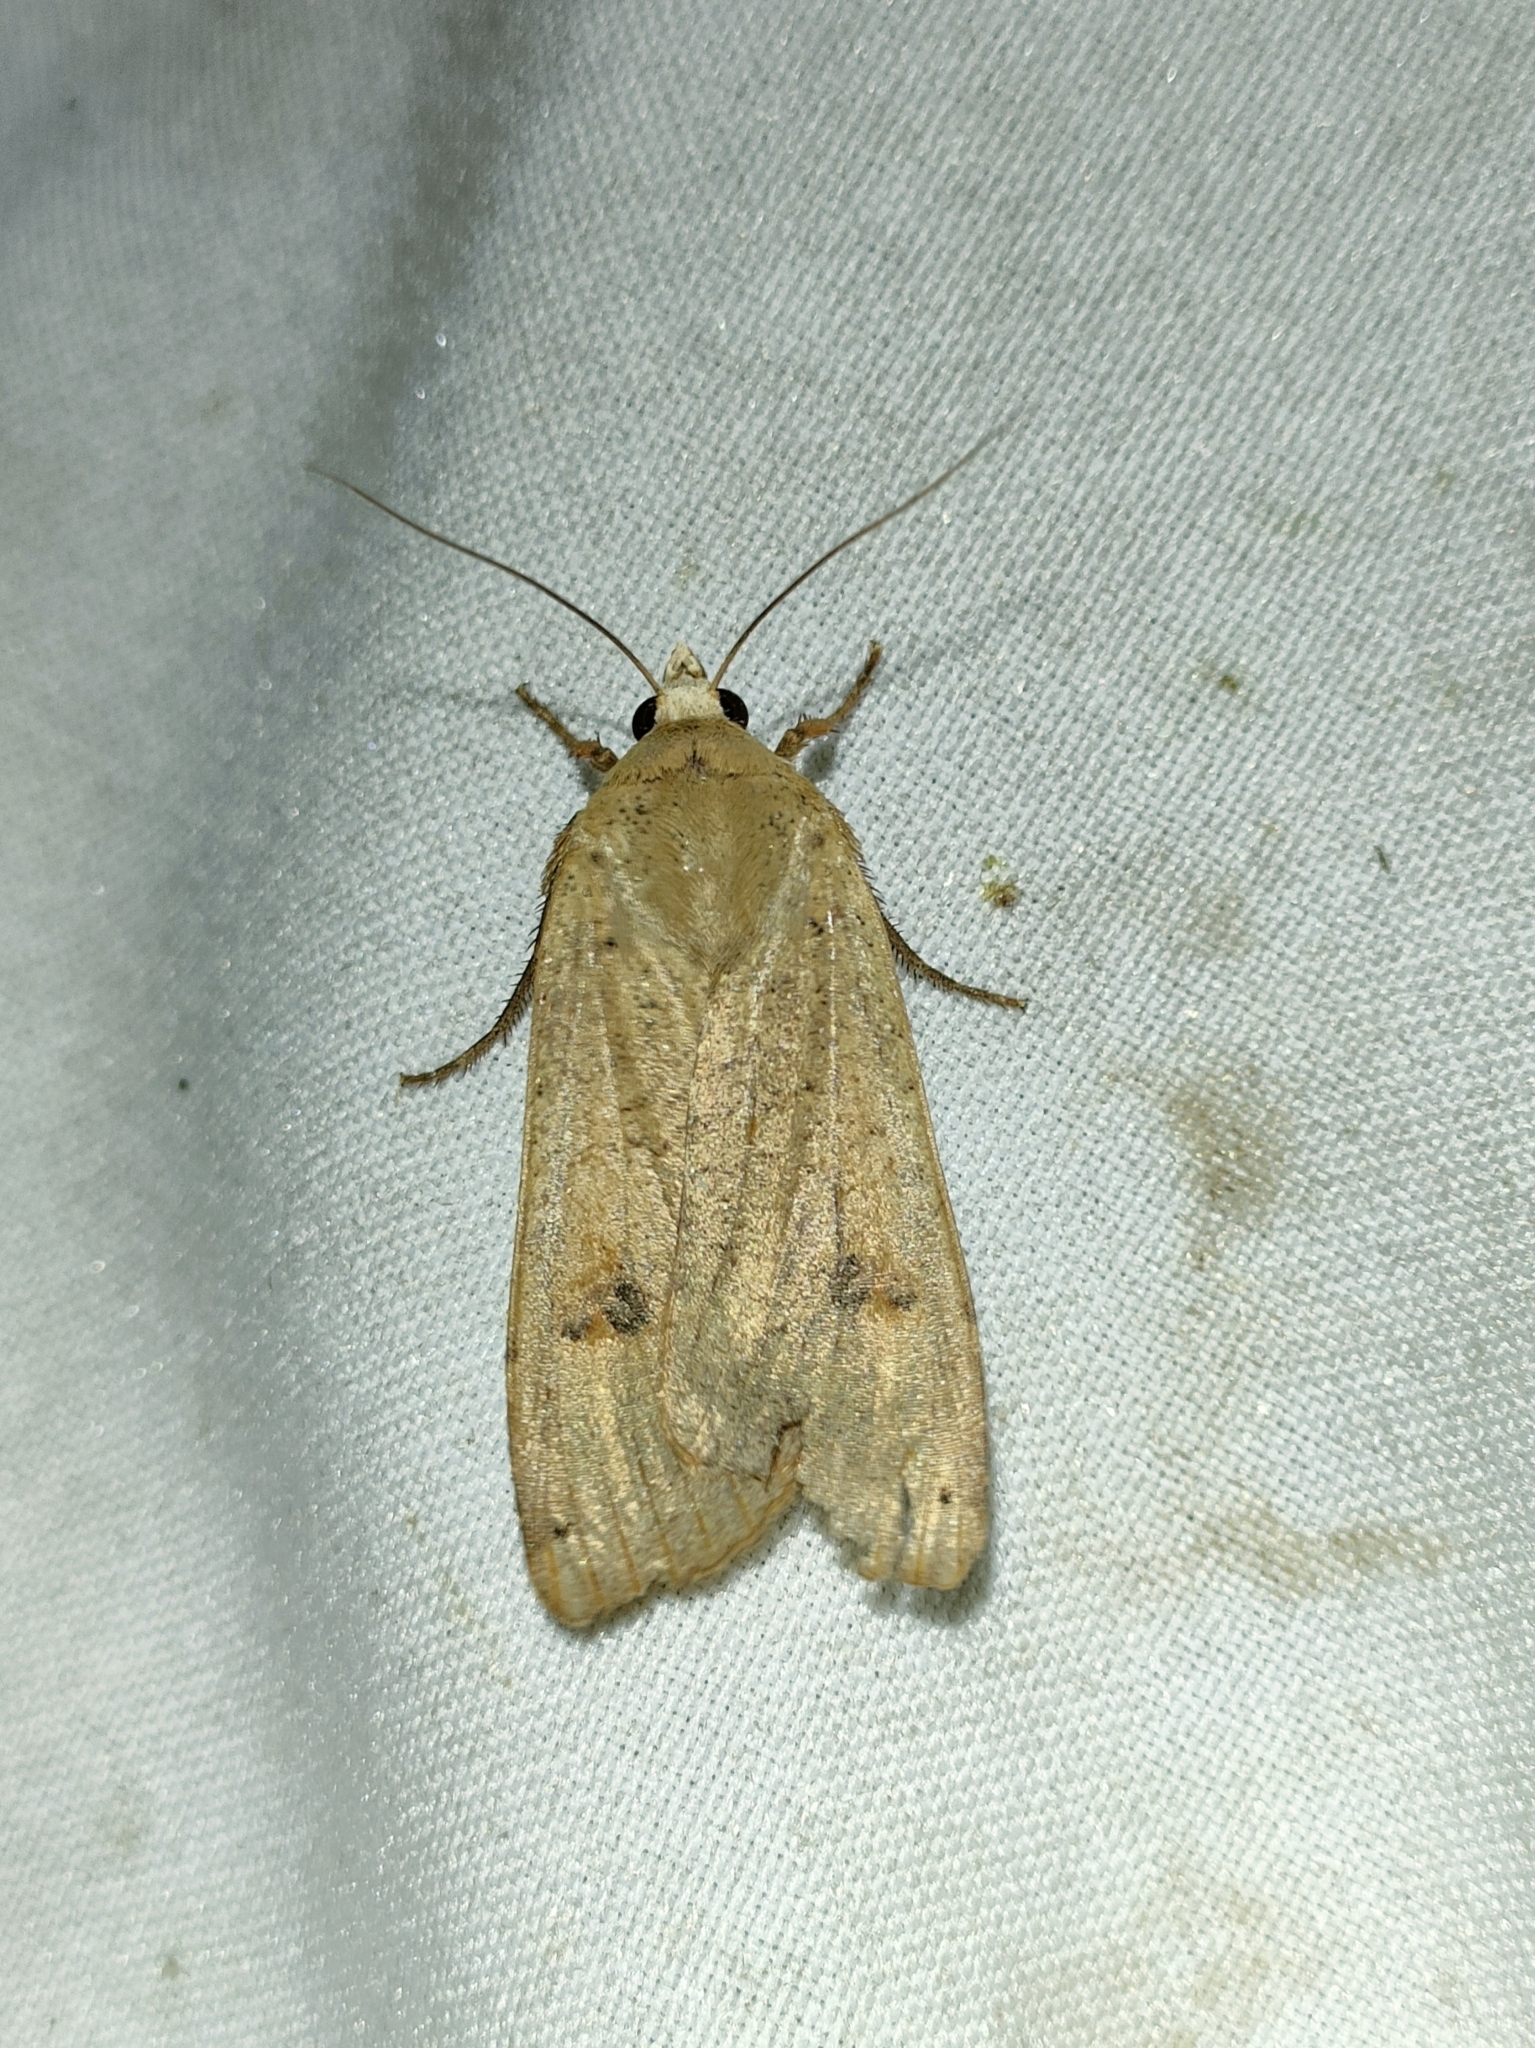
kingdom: Animalia
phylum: Arthropoda
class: Insecta
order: Lepidoptera
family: Noctuidae
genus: Noctua
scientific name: Noctua pronuba
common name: Large yellow underwing
